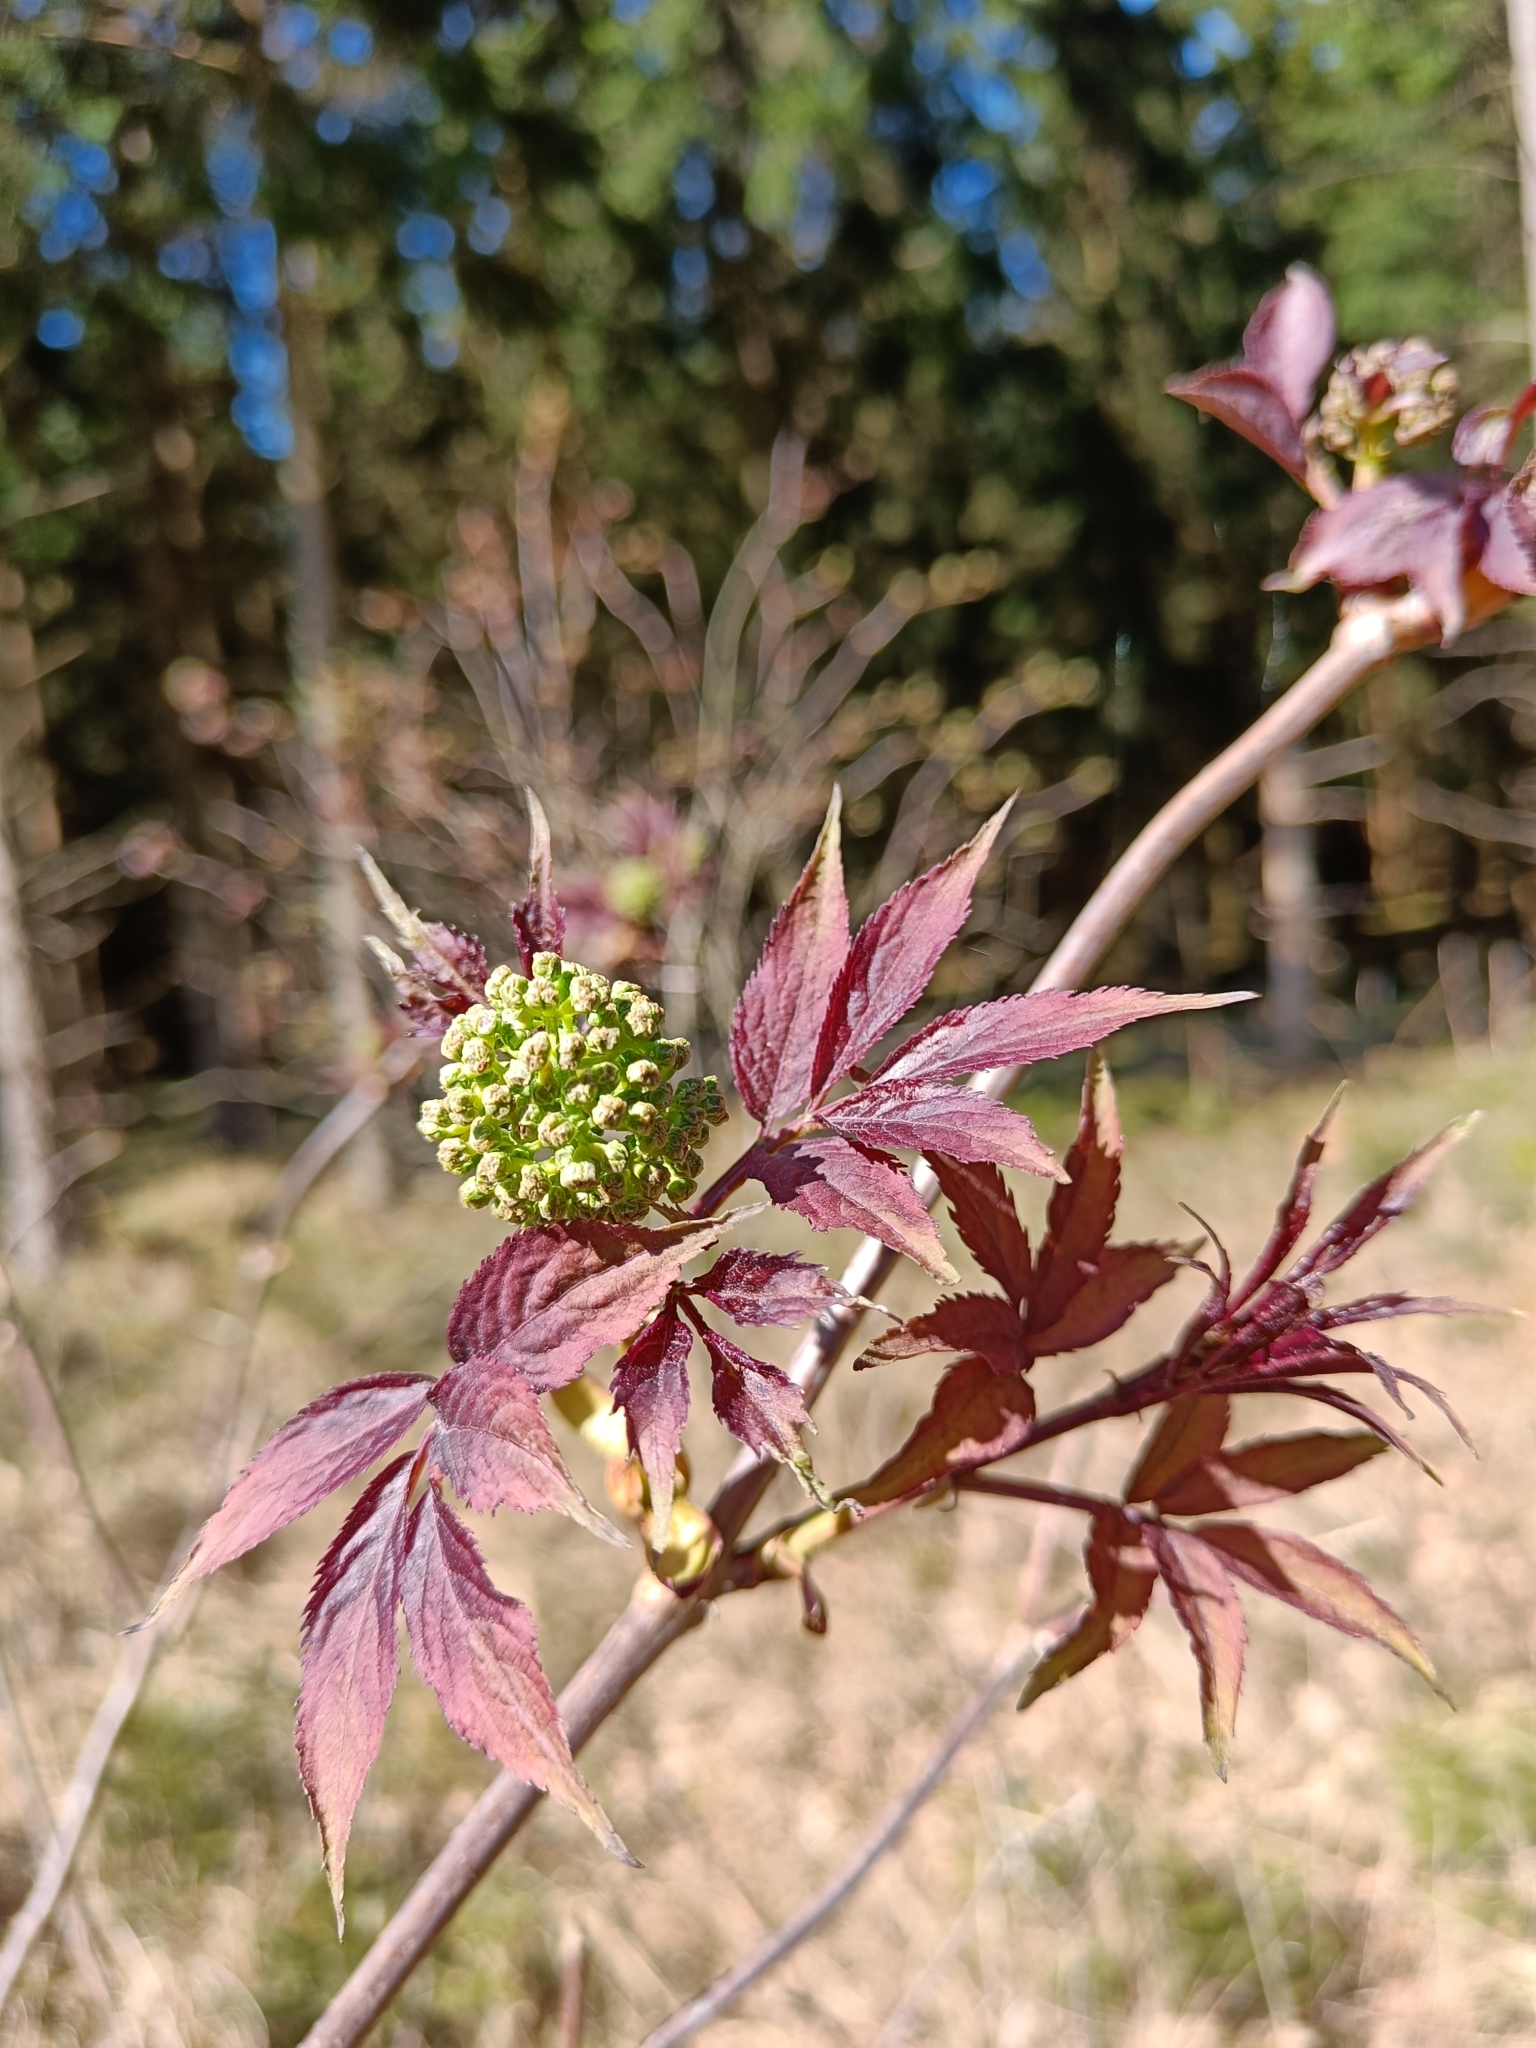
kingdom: Plantae
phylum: Tracheophyta
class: Magnoliopsida
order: Dipsacales
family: Viburnaceae
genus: Sambucus
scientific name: Sambucus racemosa
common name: Red-berried elder
